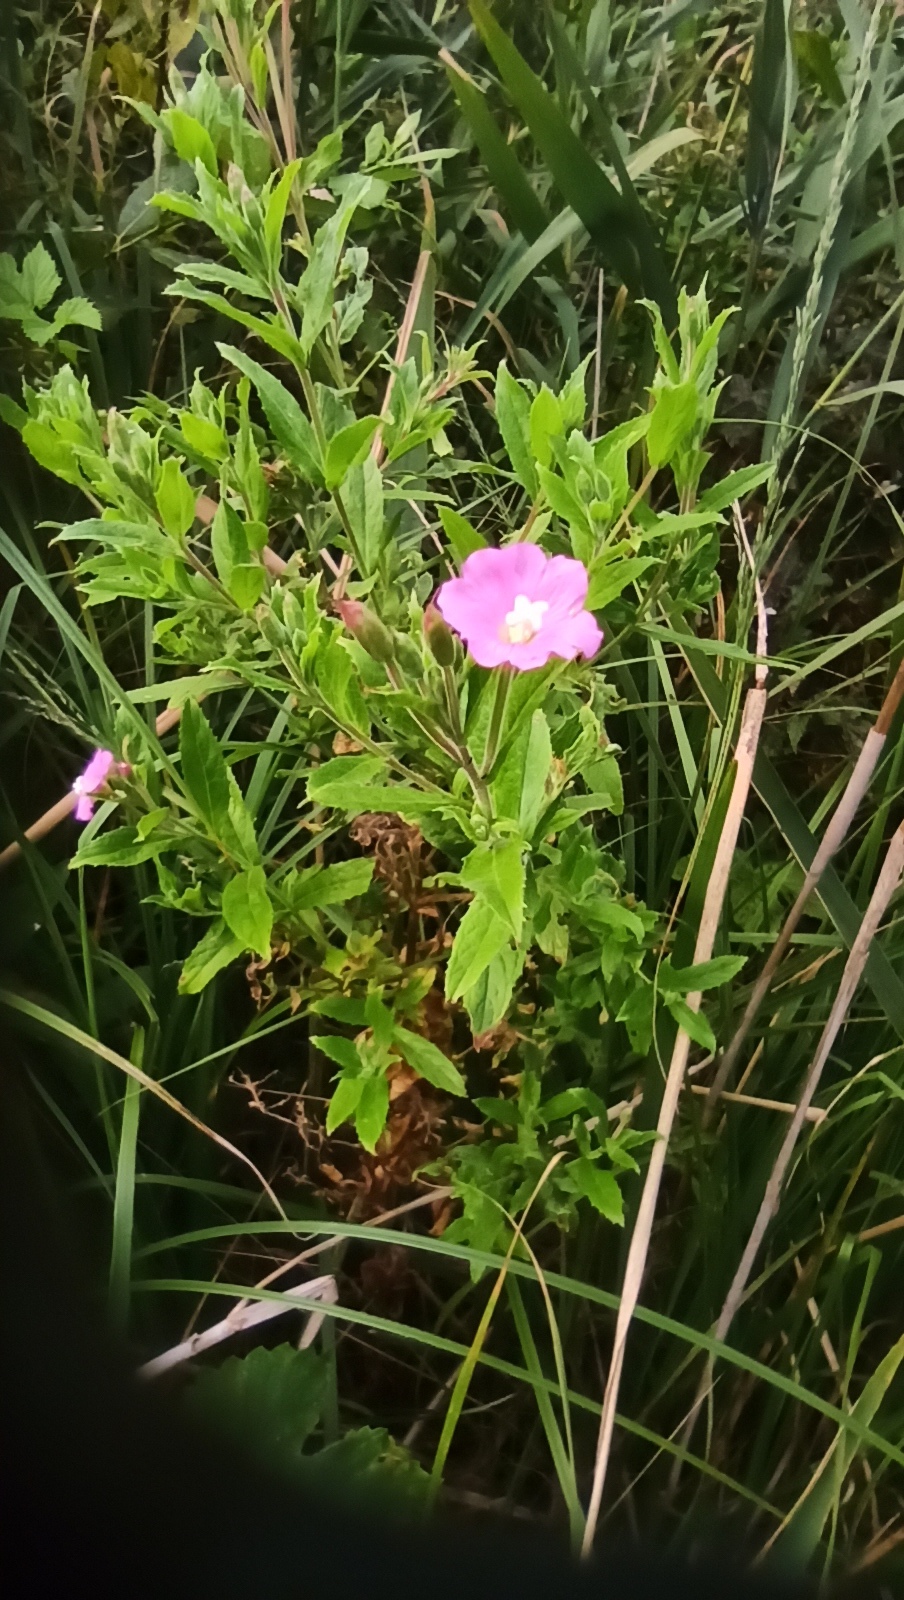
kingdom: Plantae
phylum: Tracheophyta
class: Magnoliopsida
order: Myrtales
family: Onagraceae
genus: Epilobium
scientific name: Epilobium hirsutum
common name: Great willowherb
